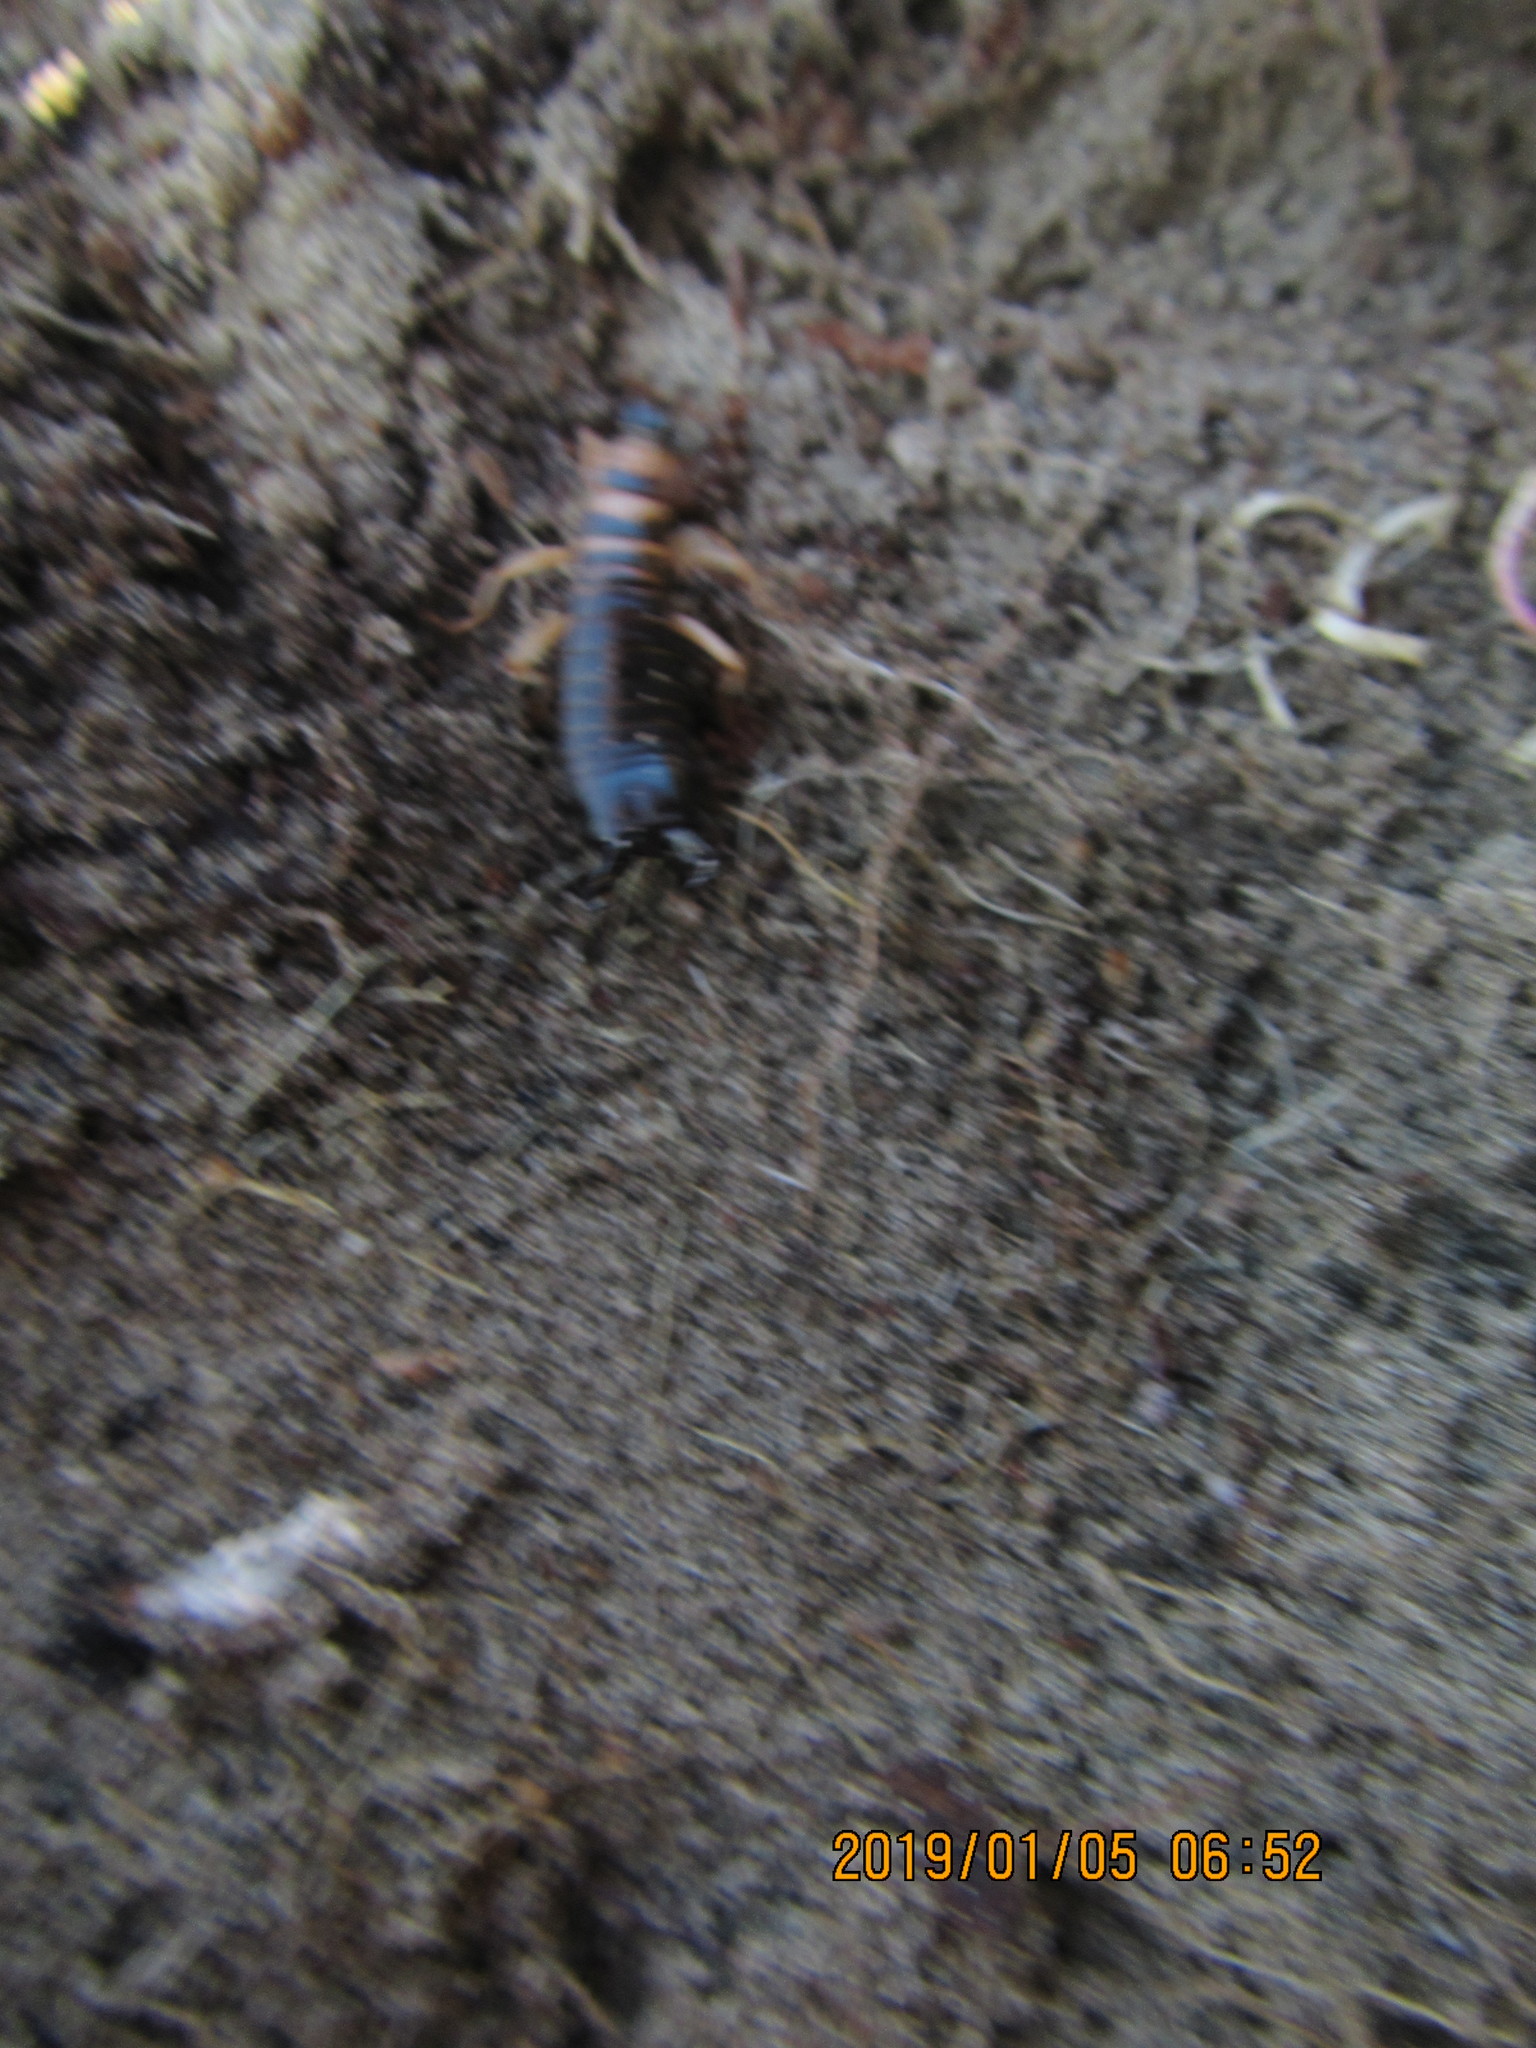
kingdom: Animalia
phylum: Arthropoda
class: Insecta
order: Dermaptera
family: Anisolabididae
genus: Anisolabis
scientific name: Anisolabis littorea
